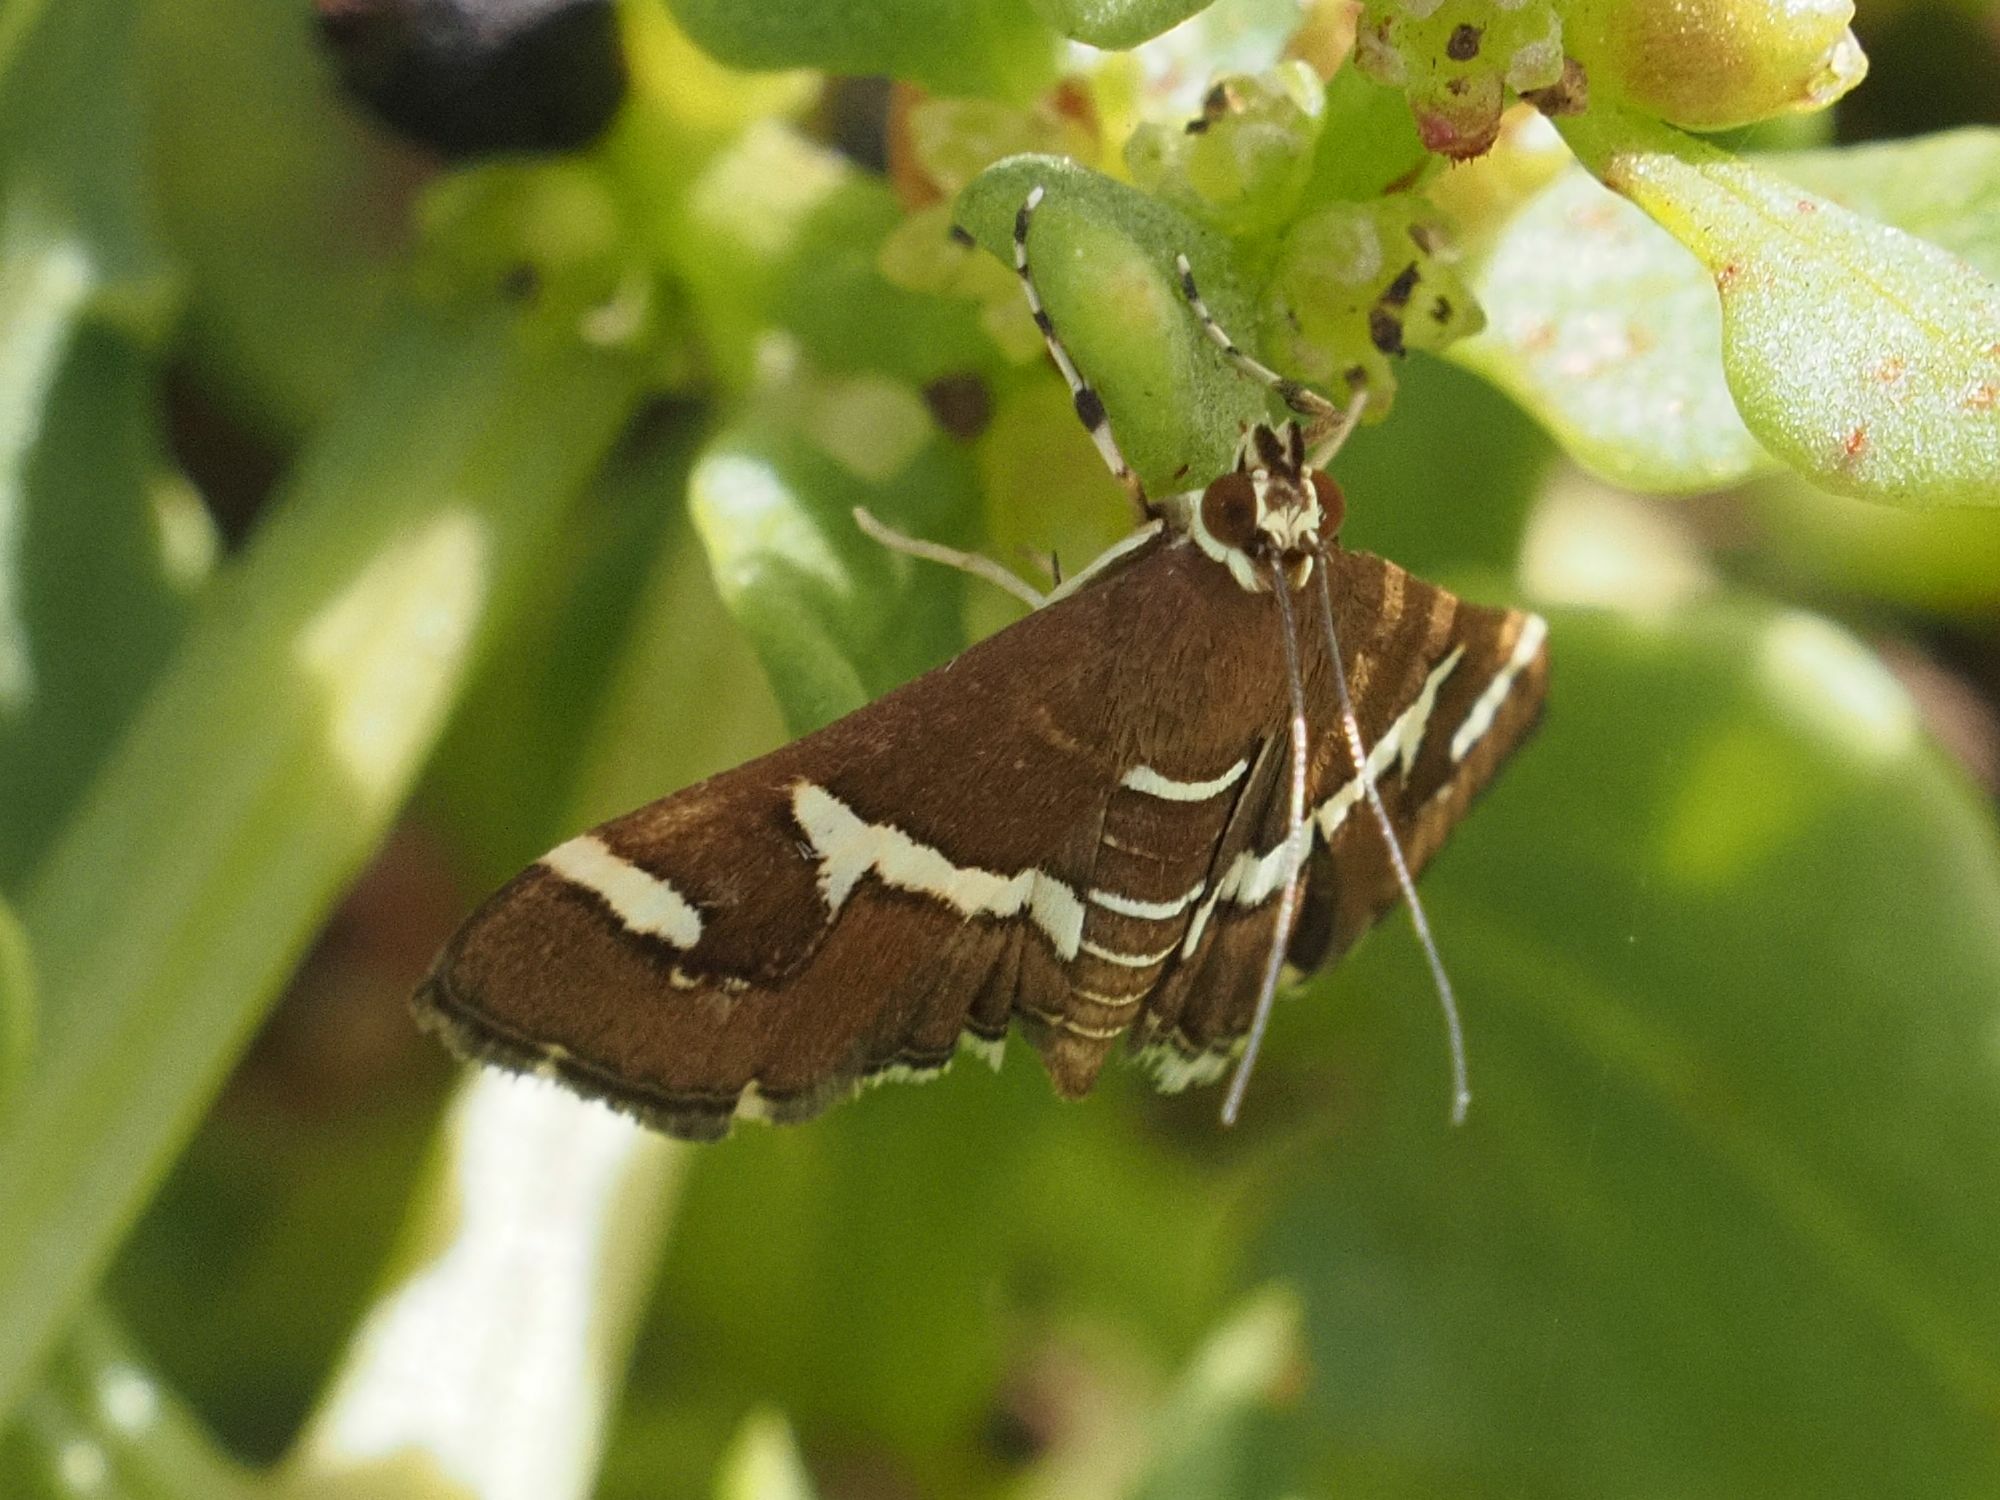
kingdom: Animalia
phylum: Arthropoda
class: Insecta
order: Lepidoptera
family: Crambidae
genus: Spoladea
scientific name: Spoladea recurvalis
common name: Beet webworm moth
